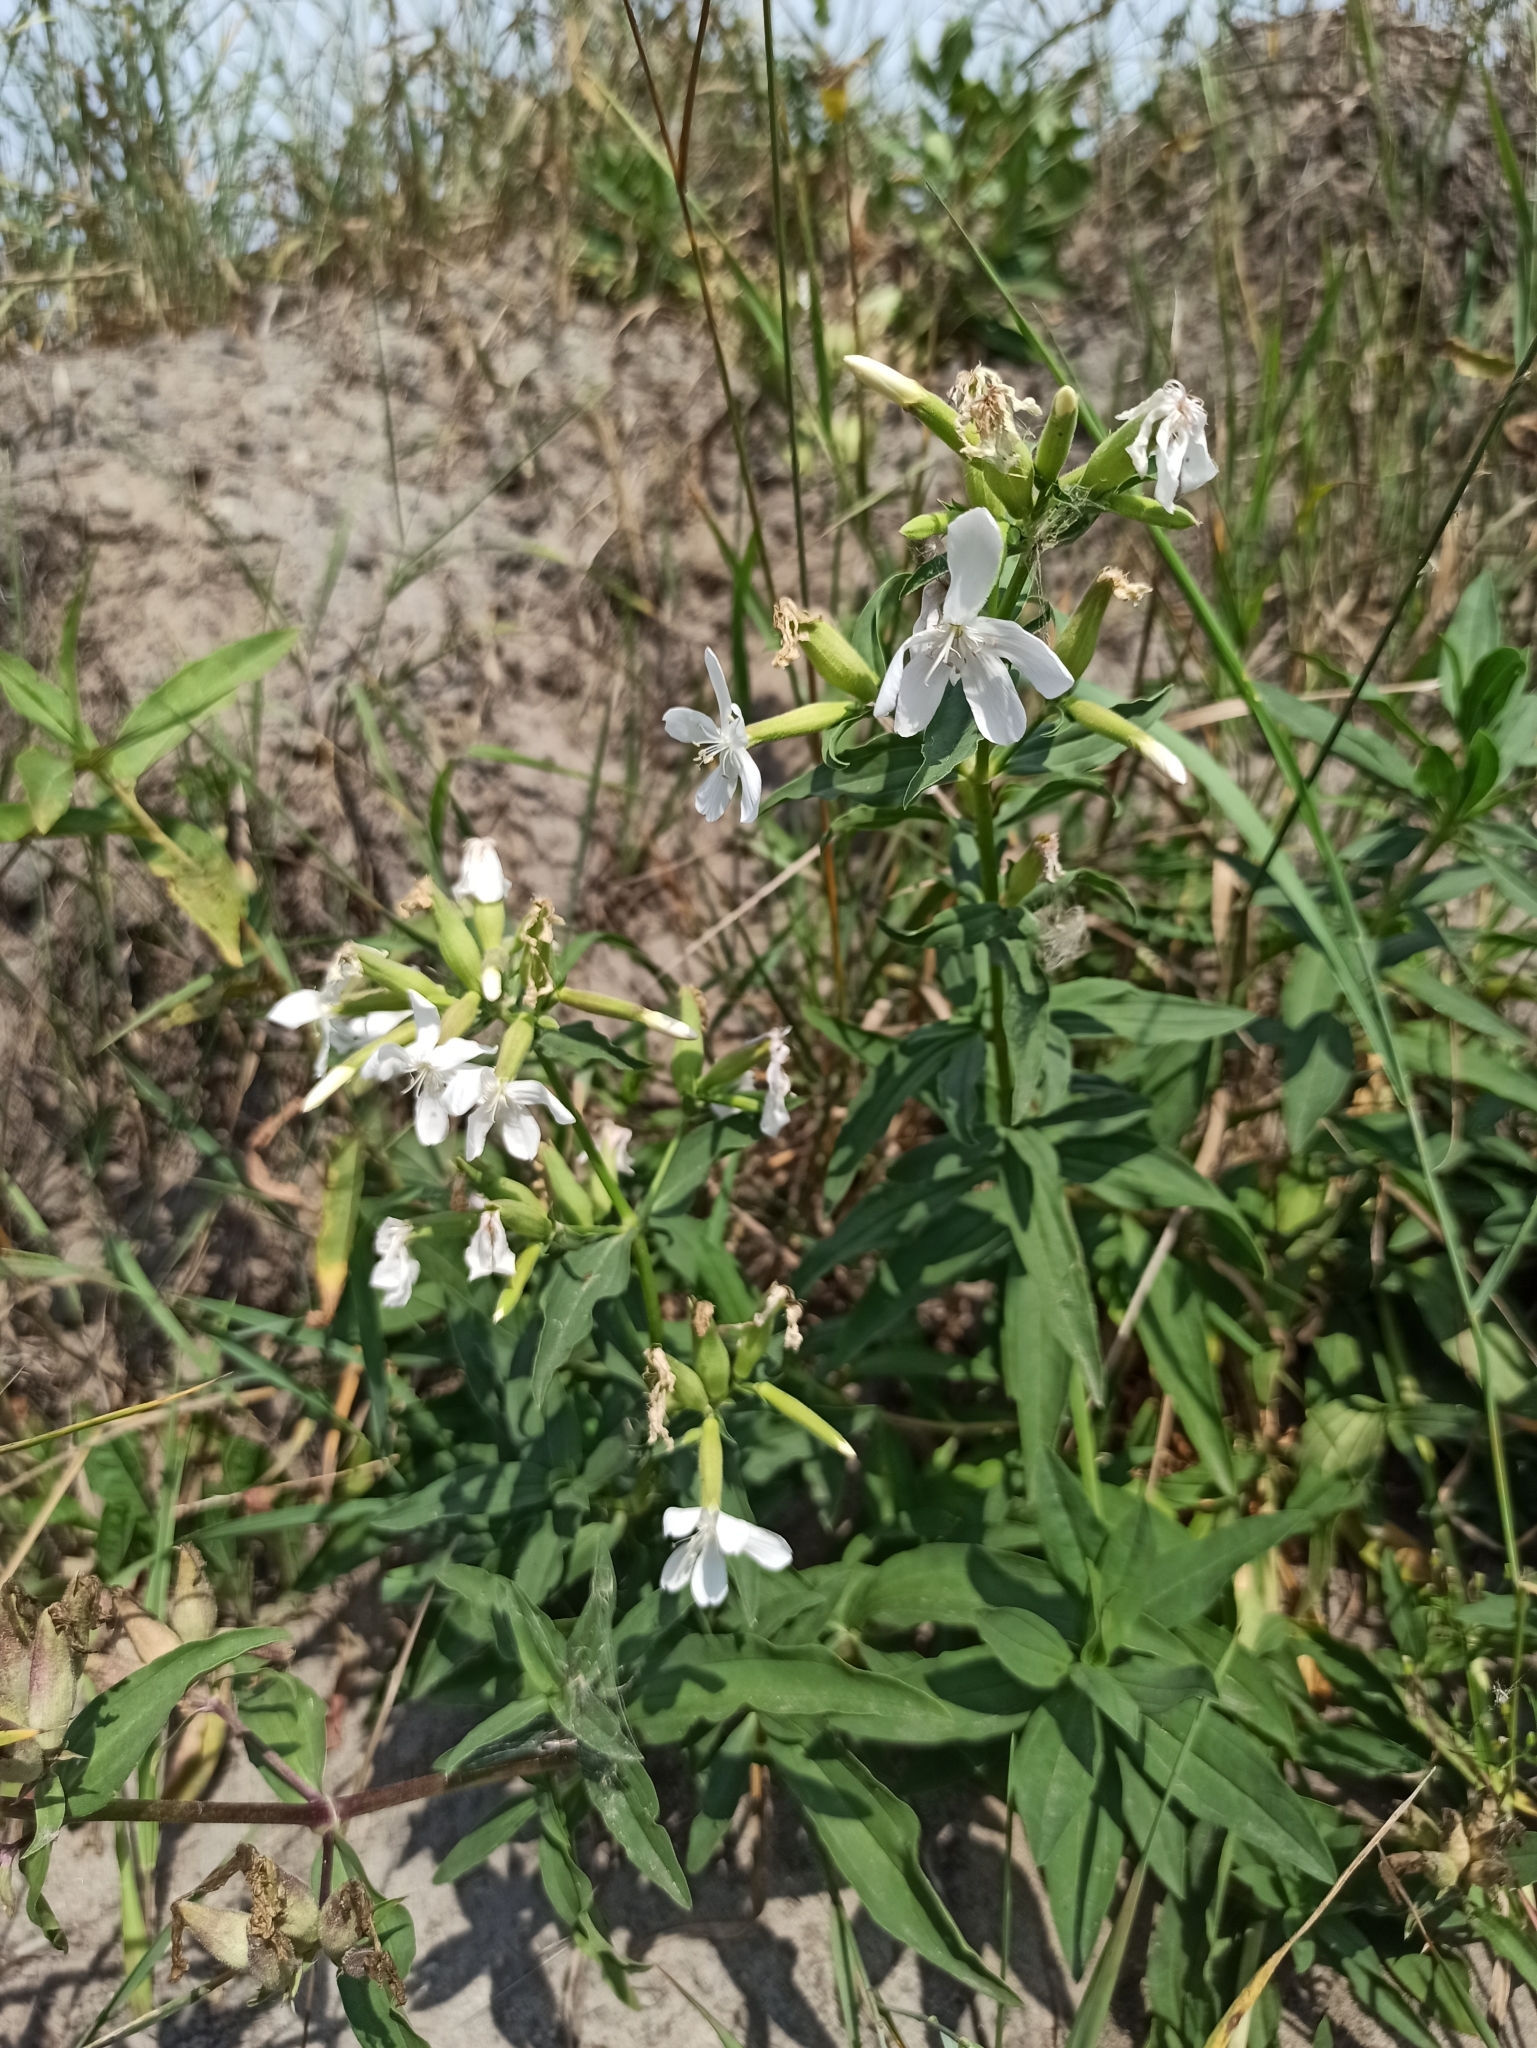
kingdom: Plantae
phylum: Tracheophyta
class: Magnoliopsida
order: Caryophyllales
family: Caryophyllaceae
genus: Saponaria
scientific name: Saponaria officinalis
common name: Soapwort
